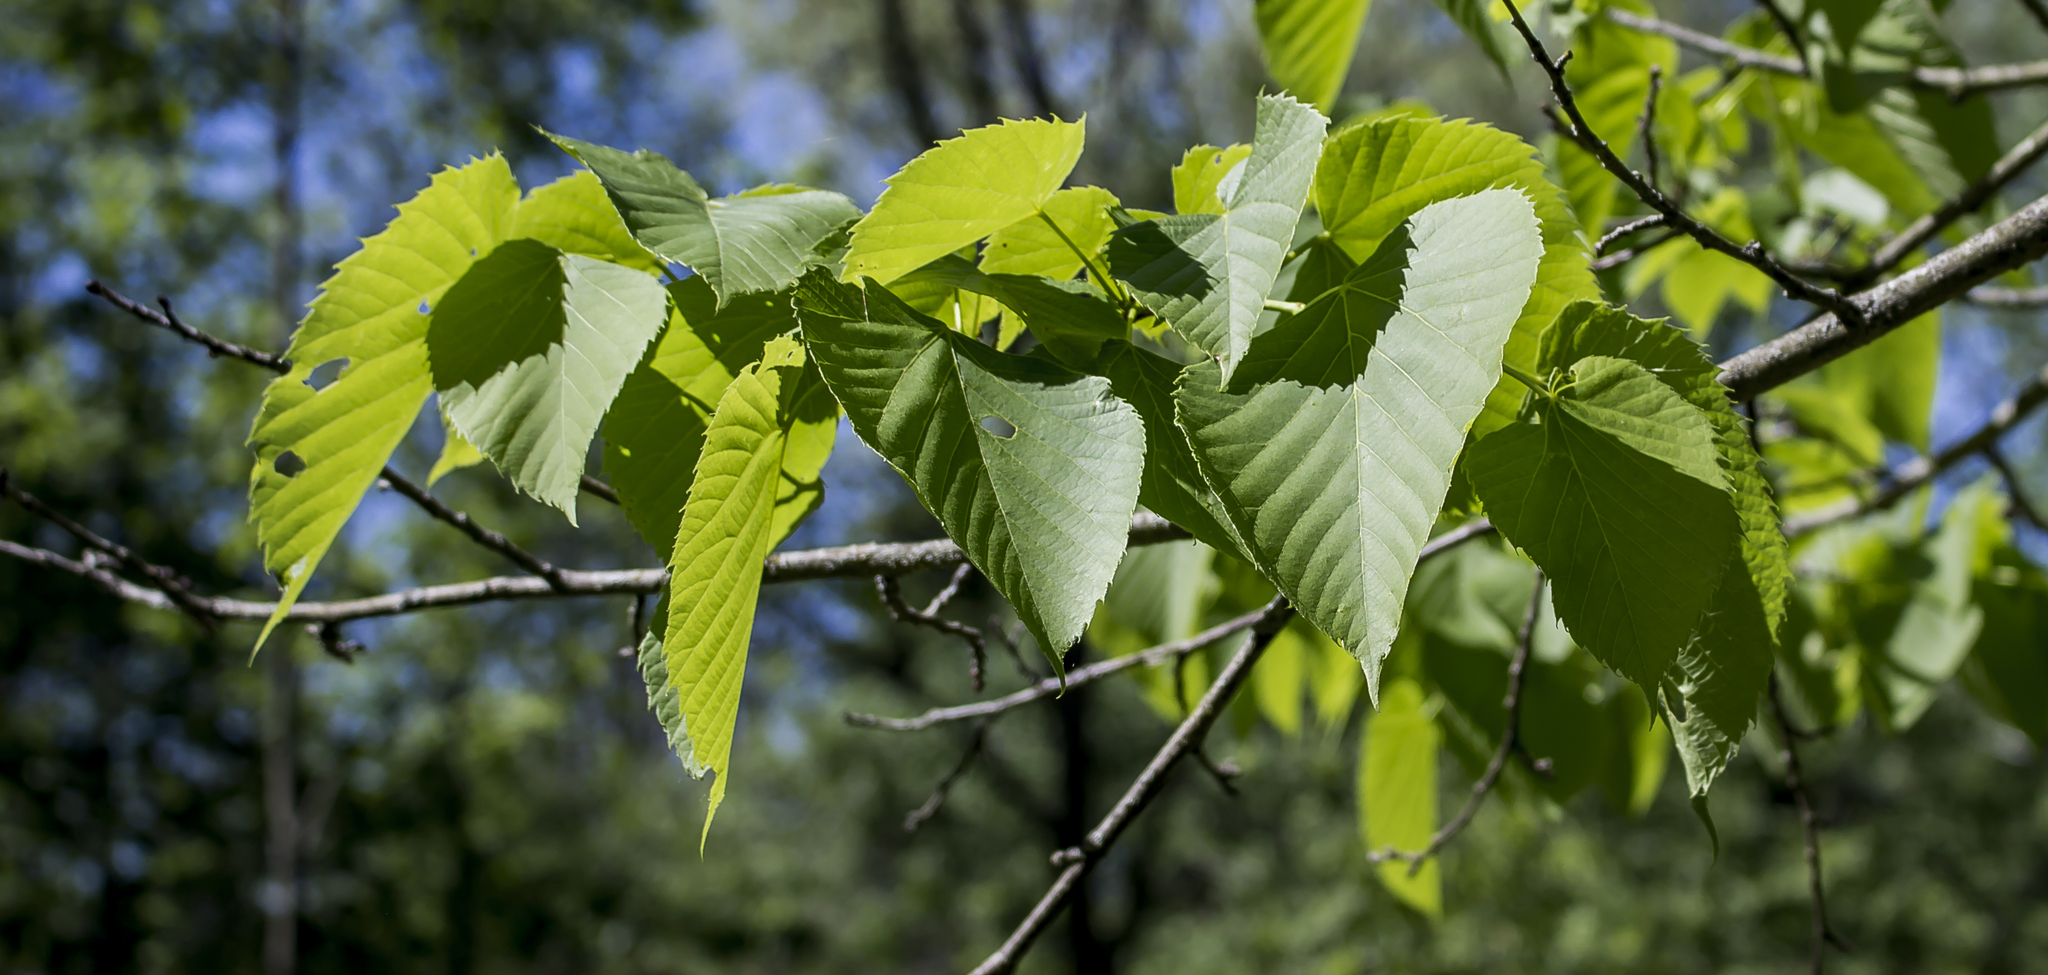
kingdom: Plantae
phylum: Tracheophyta
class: Magnoliopsida
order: Malvales
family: Malvaceae
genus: Tilia
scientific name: Tilia americana
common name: Basswood
